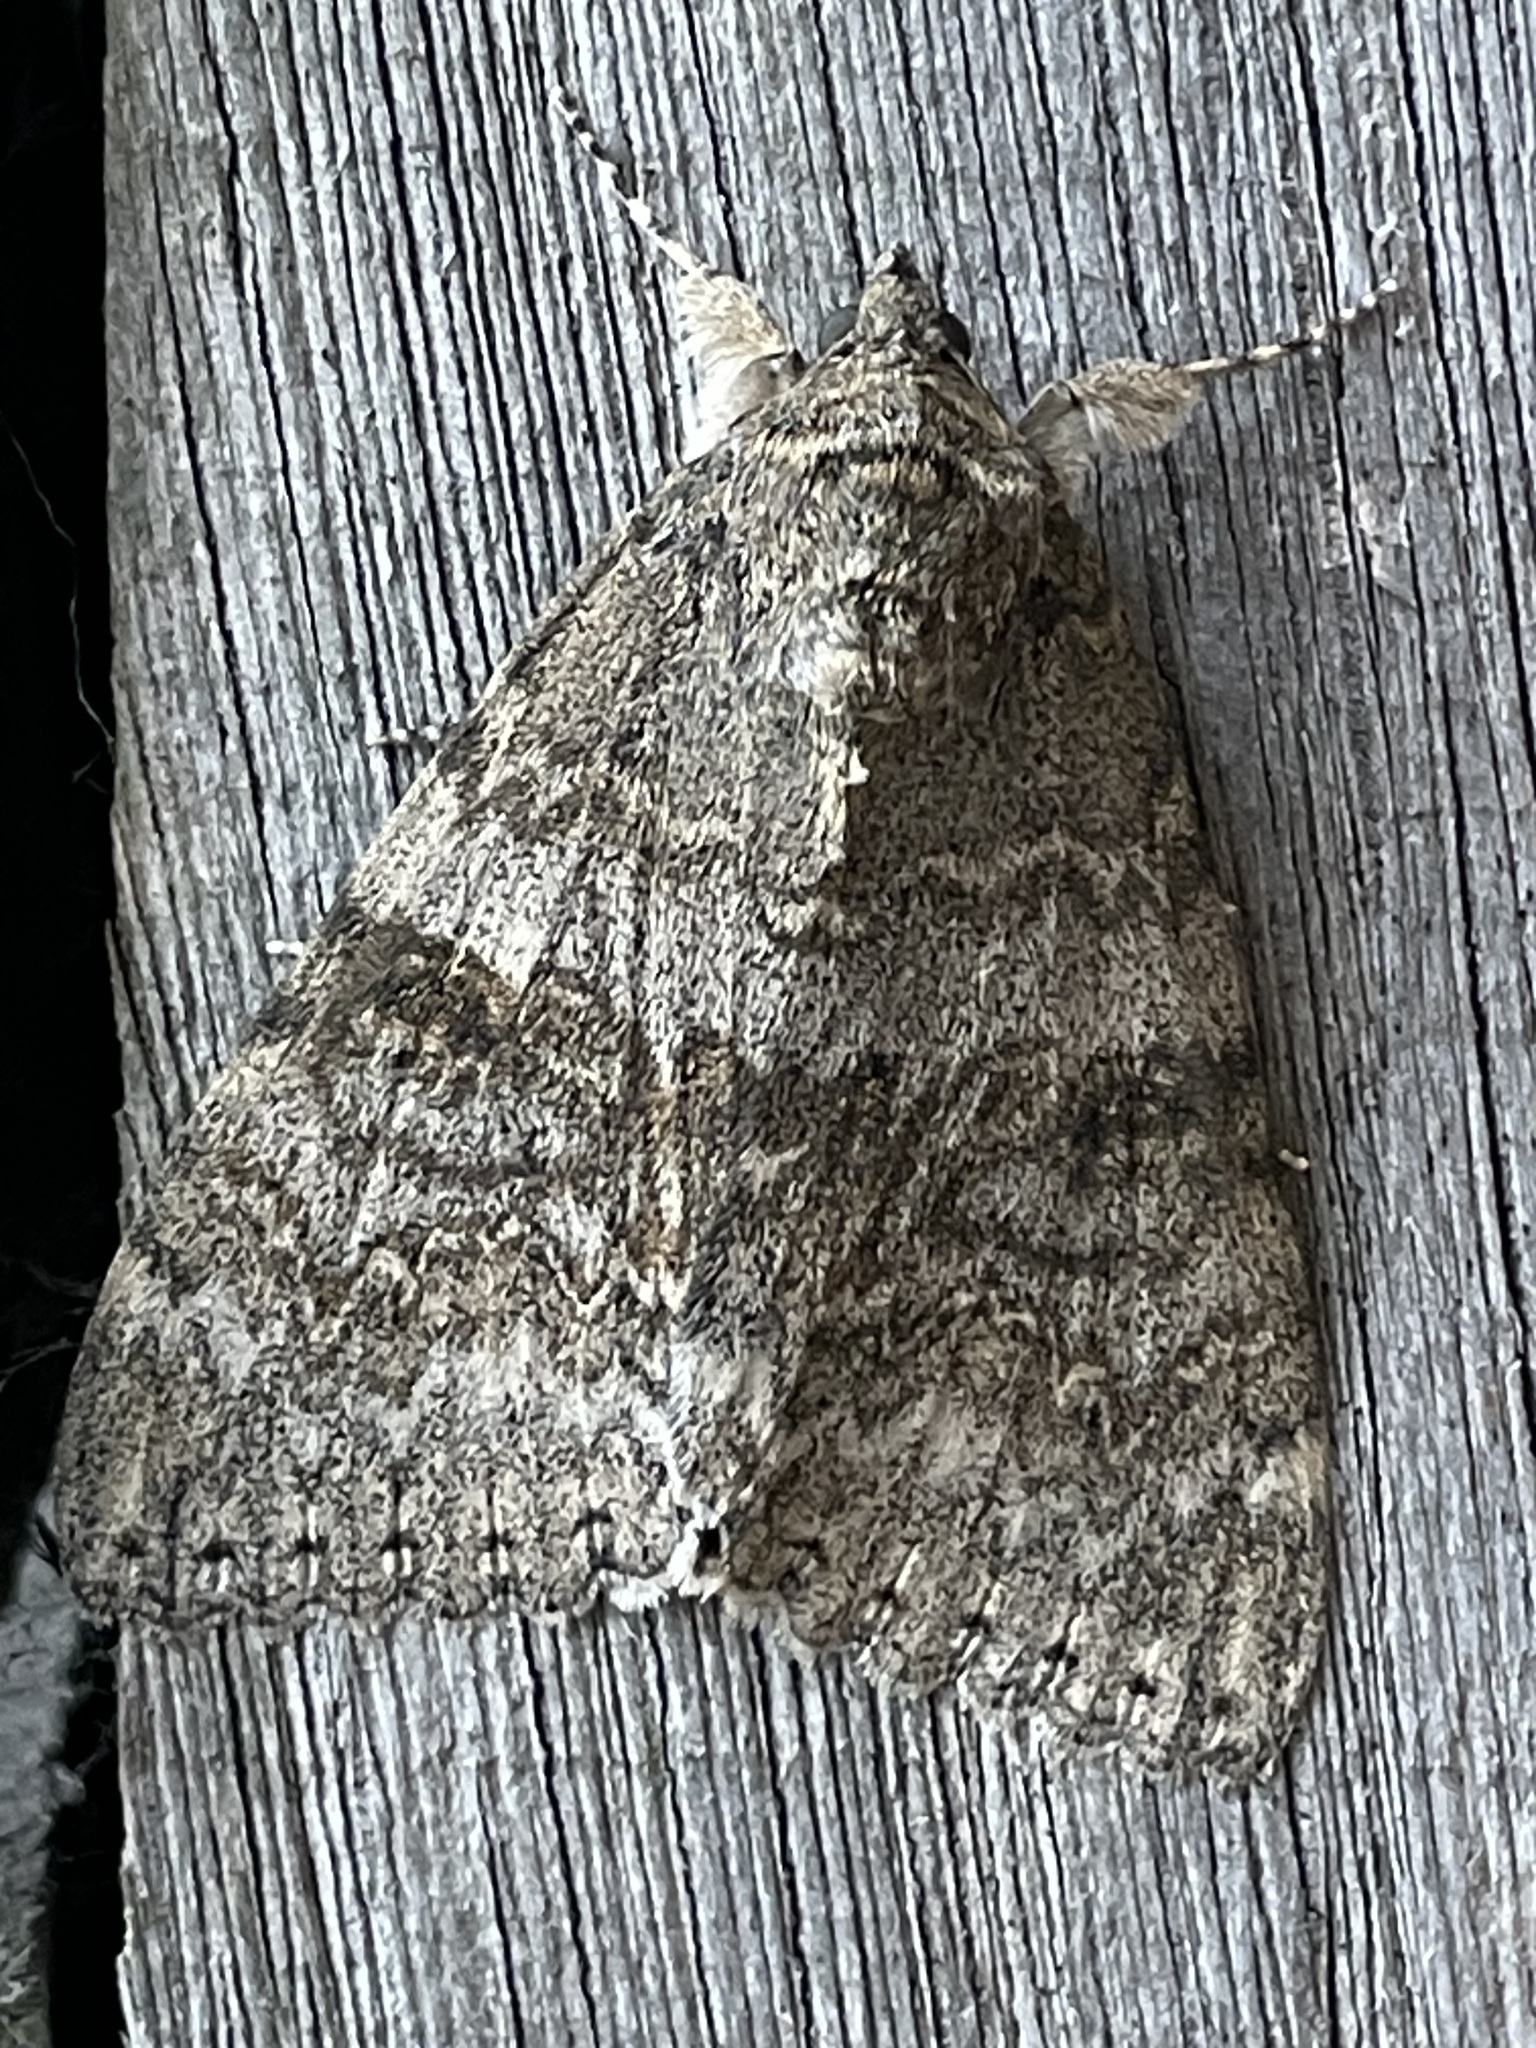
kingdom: Animalia
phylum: Arthropoda
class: Insecta
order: Lepidoptera
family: Erebidae
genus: Catocala
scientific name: Catocala nupta
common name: Red underwing
